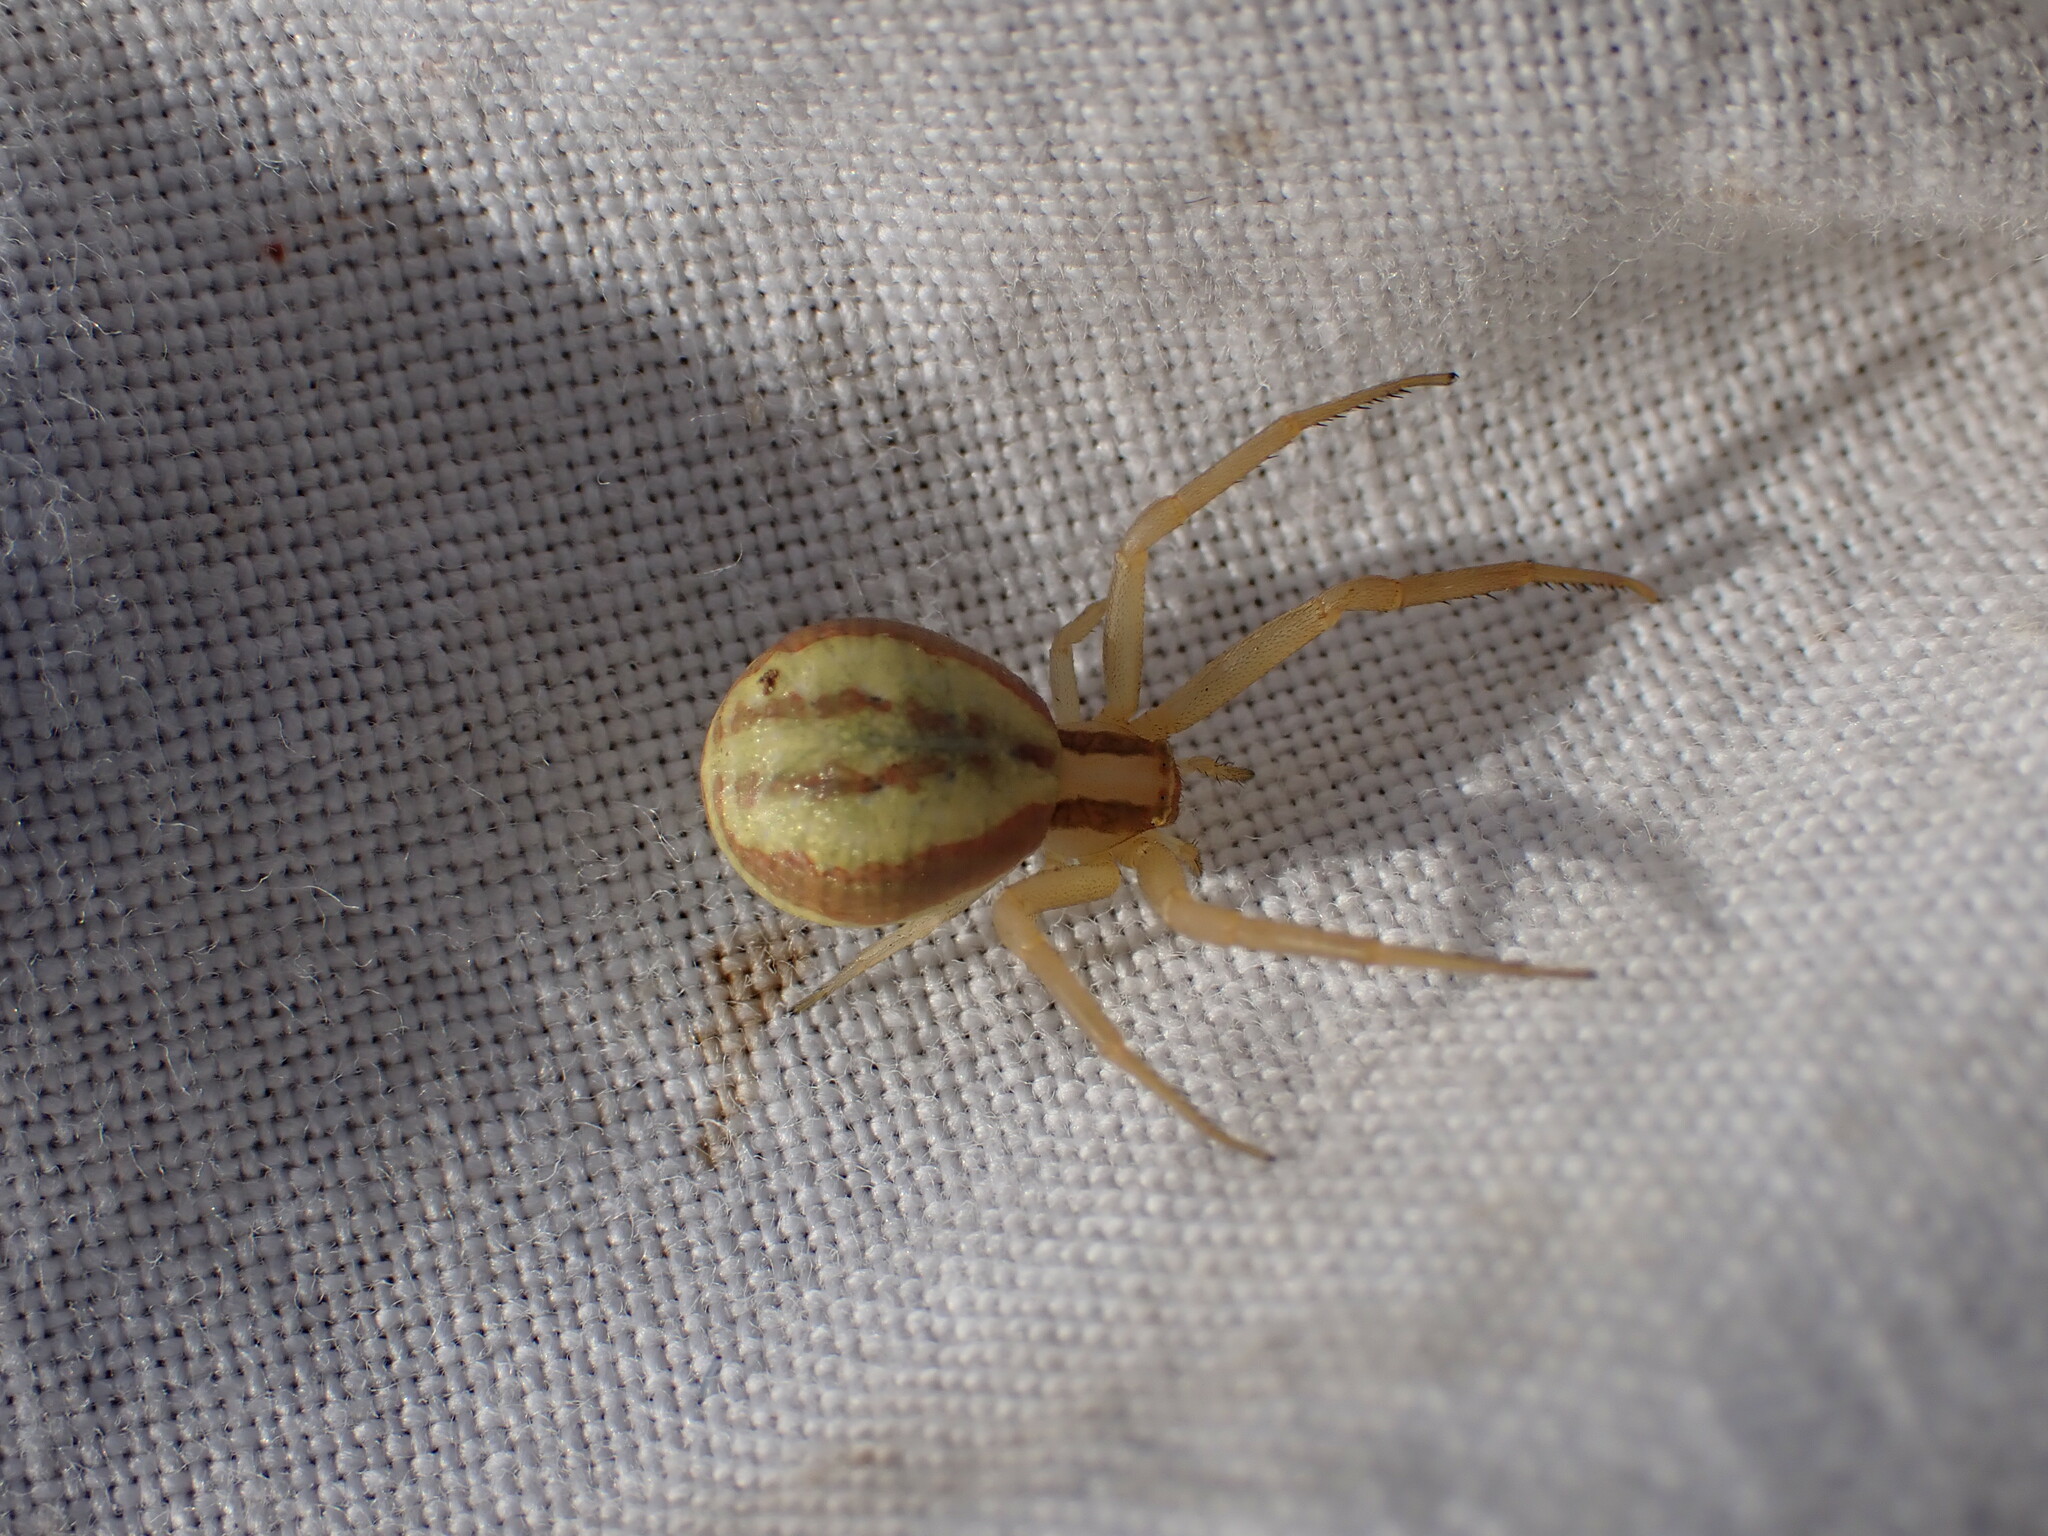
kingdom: Animalia
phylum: Arthropoda
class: Arachnida
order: Araneae
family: Thomisidae
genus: Runcinia
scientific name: Runcinia grammica
